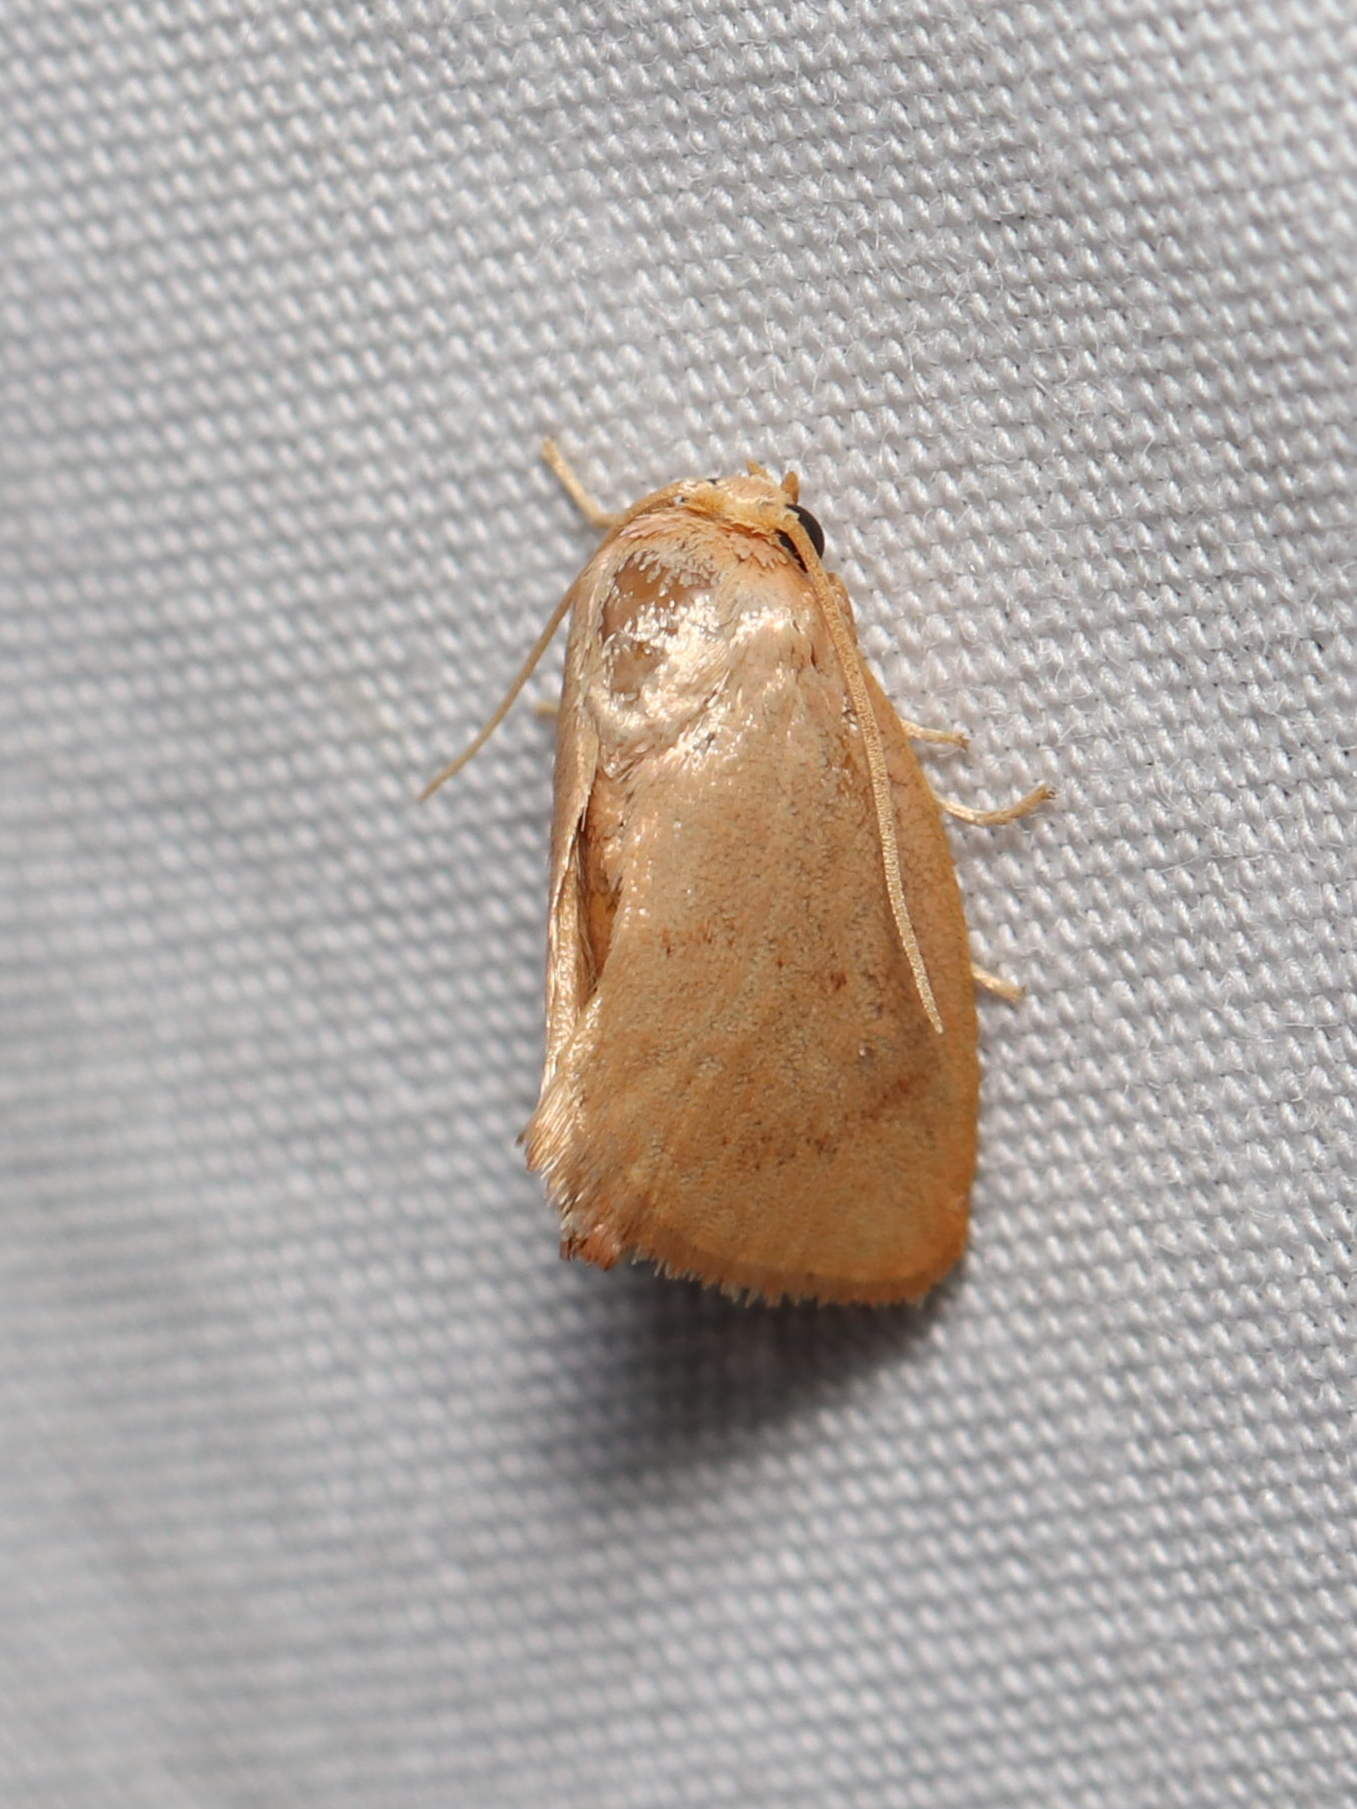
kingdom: Animalia
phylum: Arthropoda
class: Insecta
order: Lepidoptera
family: Limacodidae
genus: Tortricidia
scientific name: Tortricidia pallida
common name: Red-crossed button slug moth
